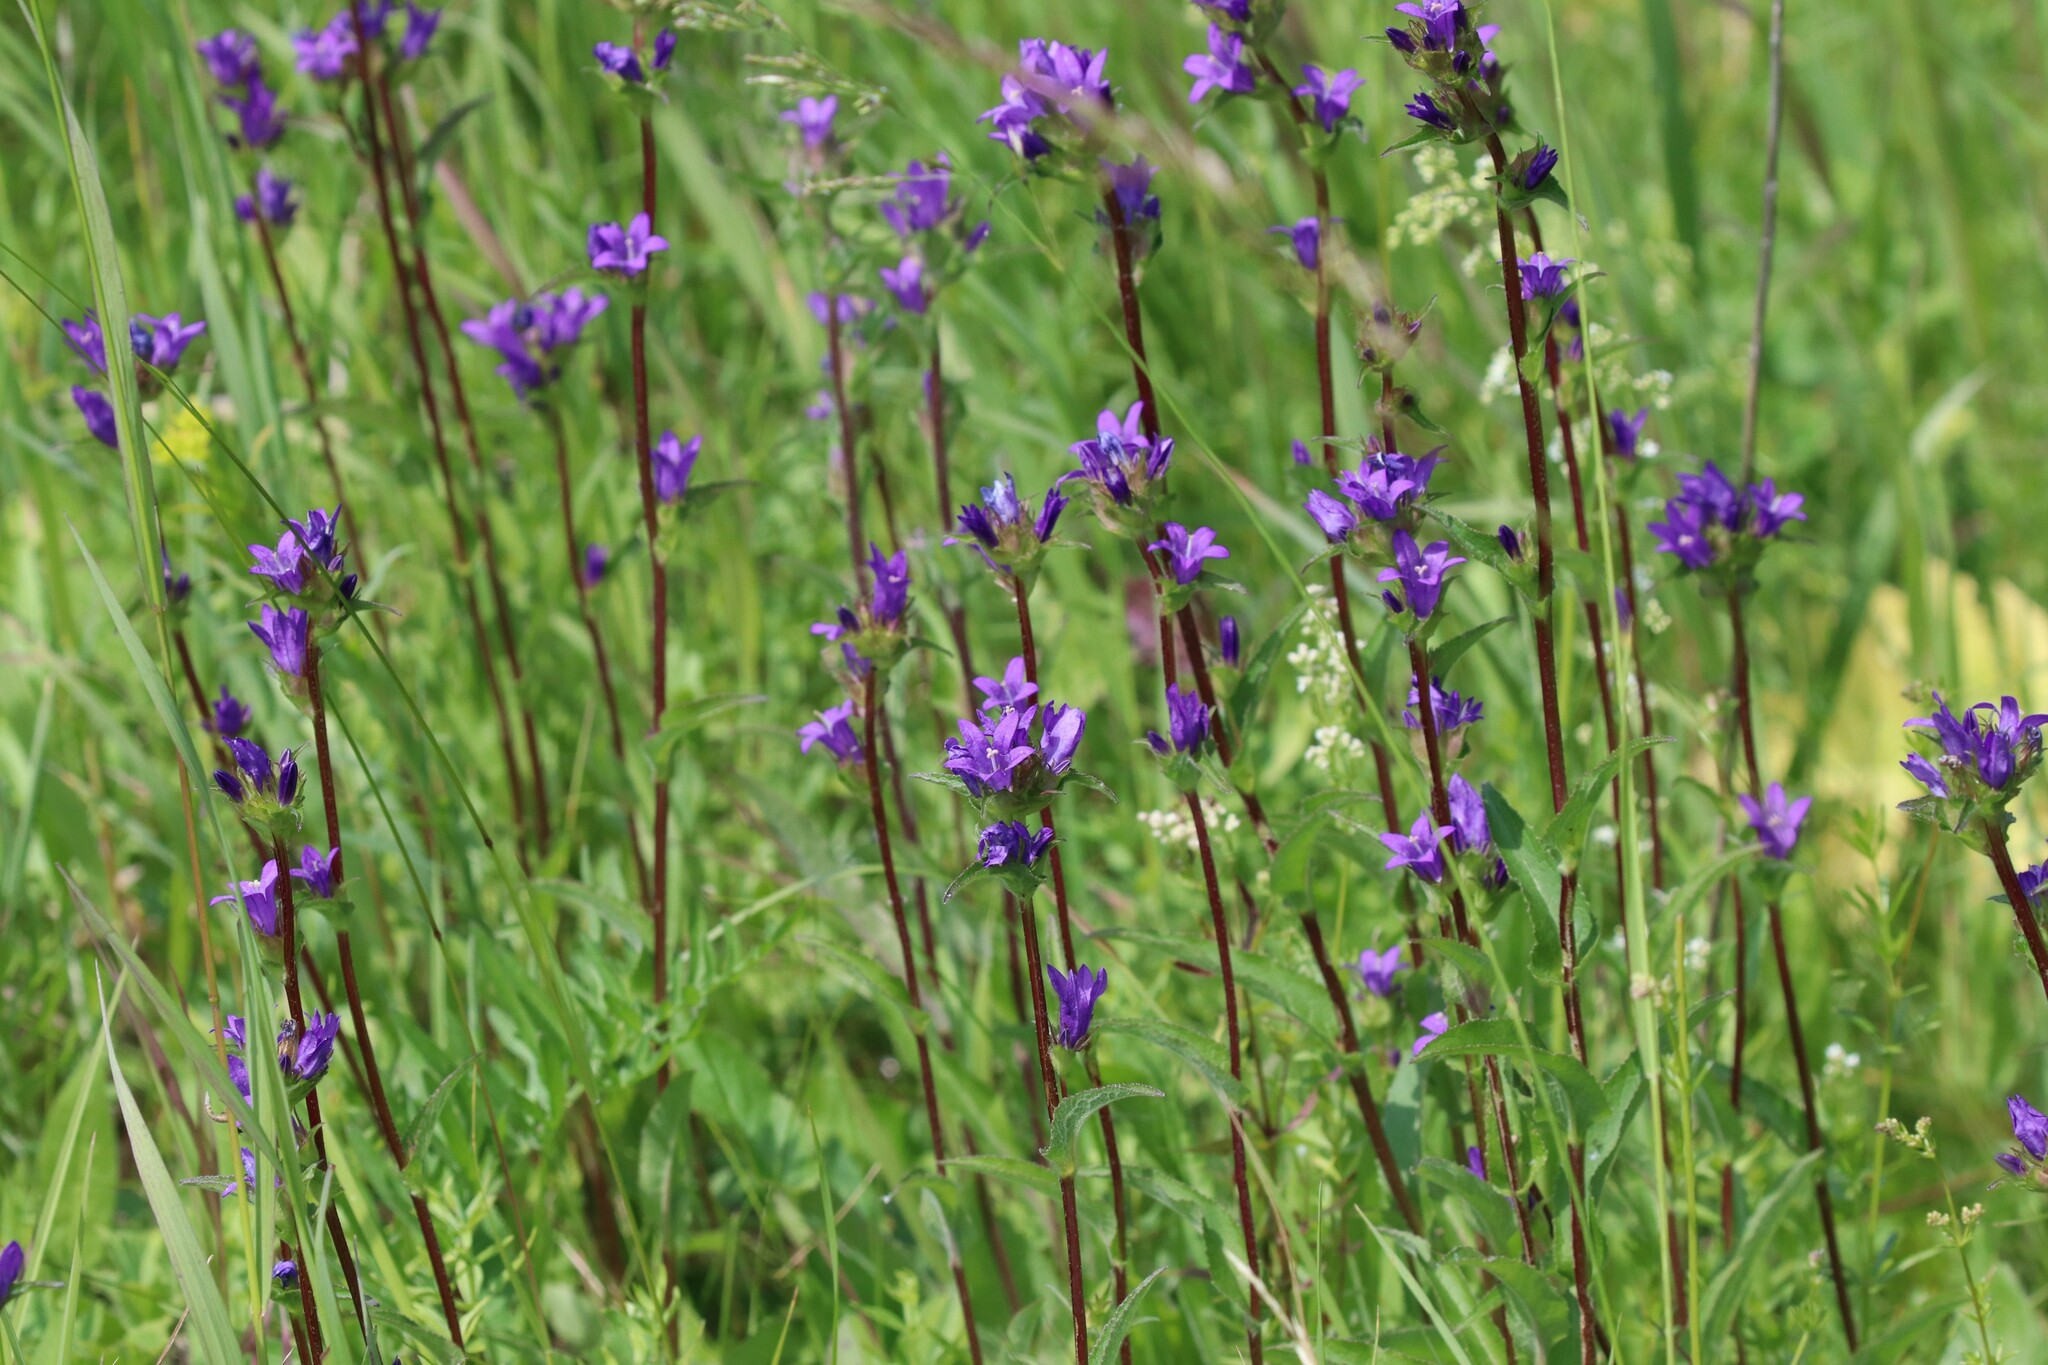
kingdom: Plantae
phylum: Tracheophyta
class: Magnoliopsida
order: Asterales
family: Campanulaceae
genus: Campanula
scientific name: Campanula glomerata
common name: Clustered bellflower
